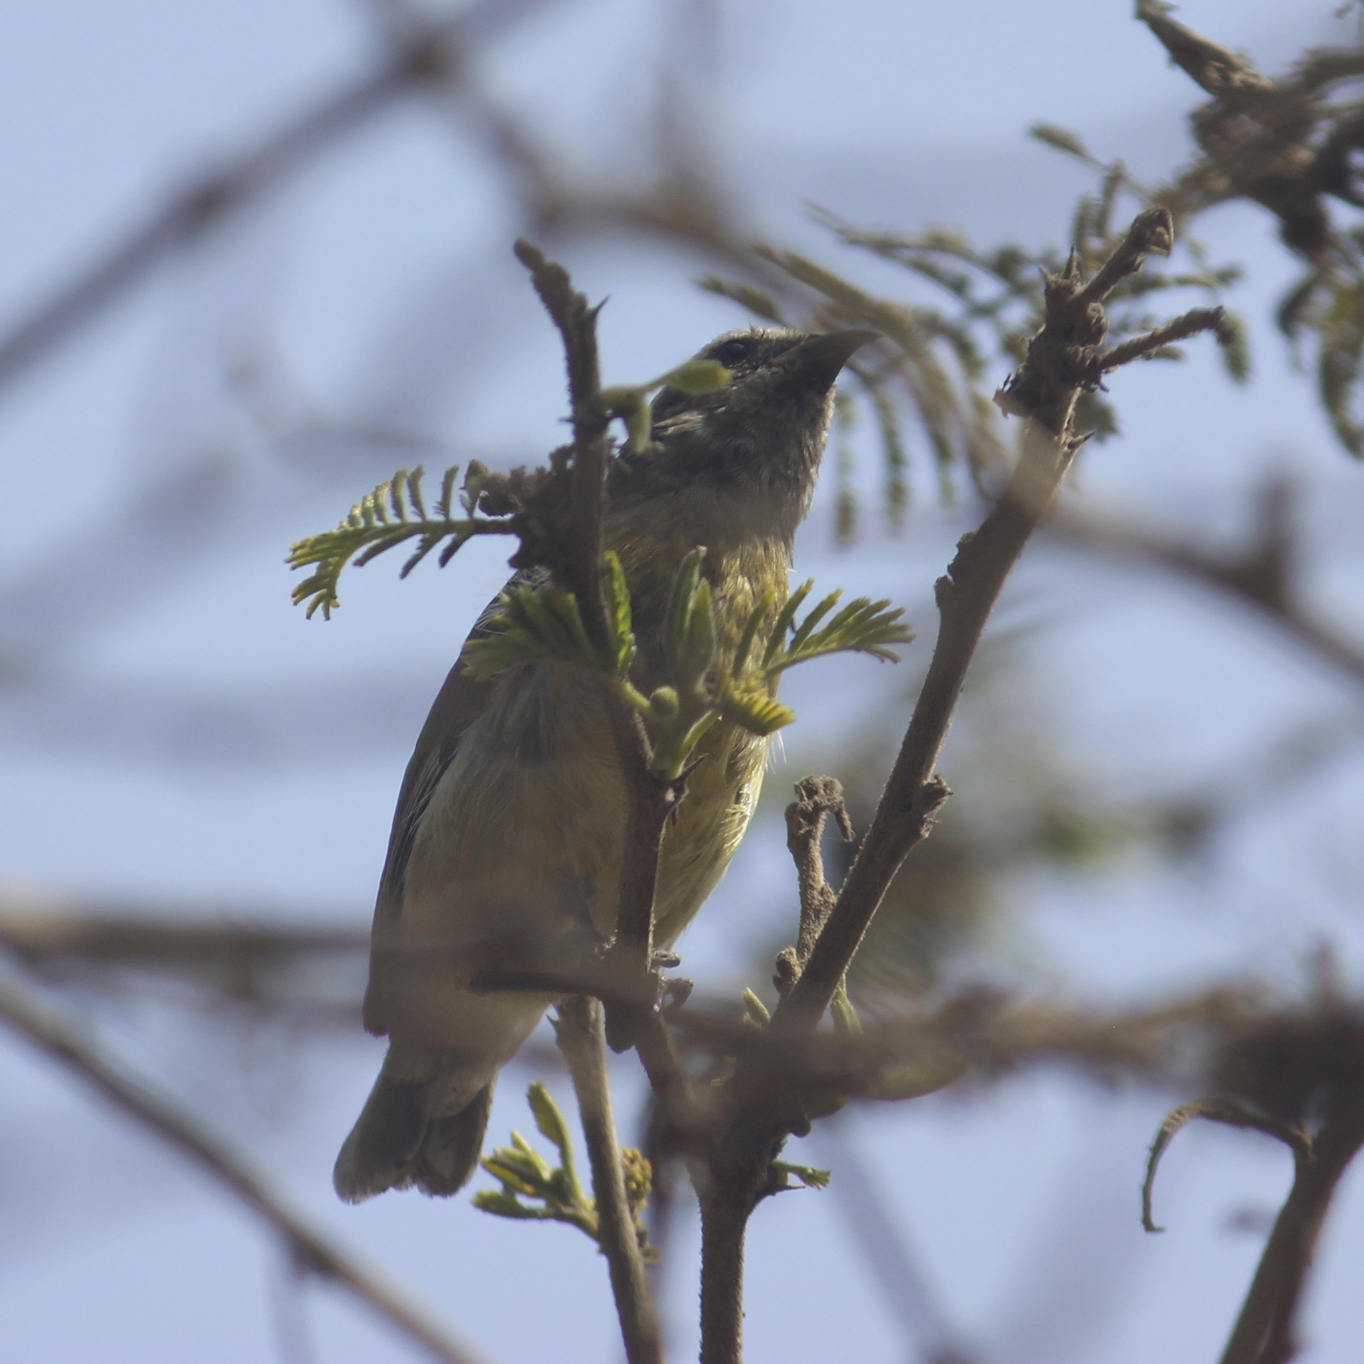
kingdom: Animalia
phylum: Chordata
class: Aves
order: Passeriformes
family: Thraupidae
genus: Coereba
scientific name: Coereba flaveola
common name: Bananaquit
